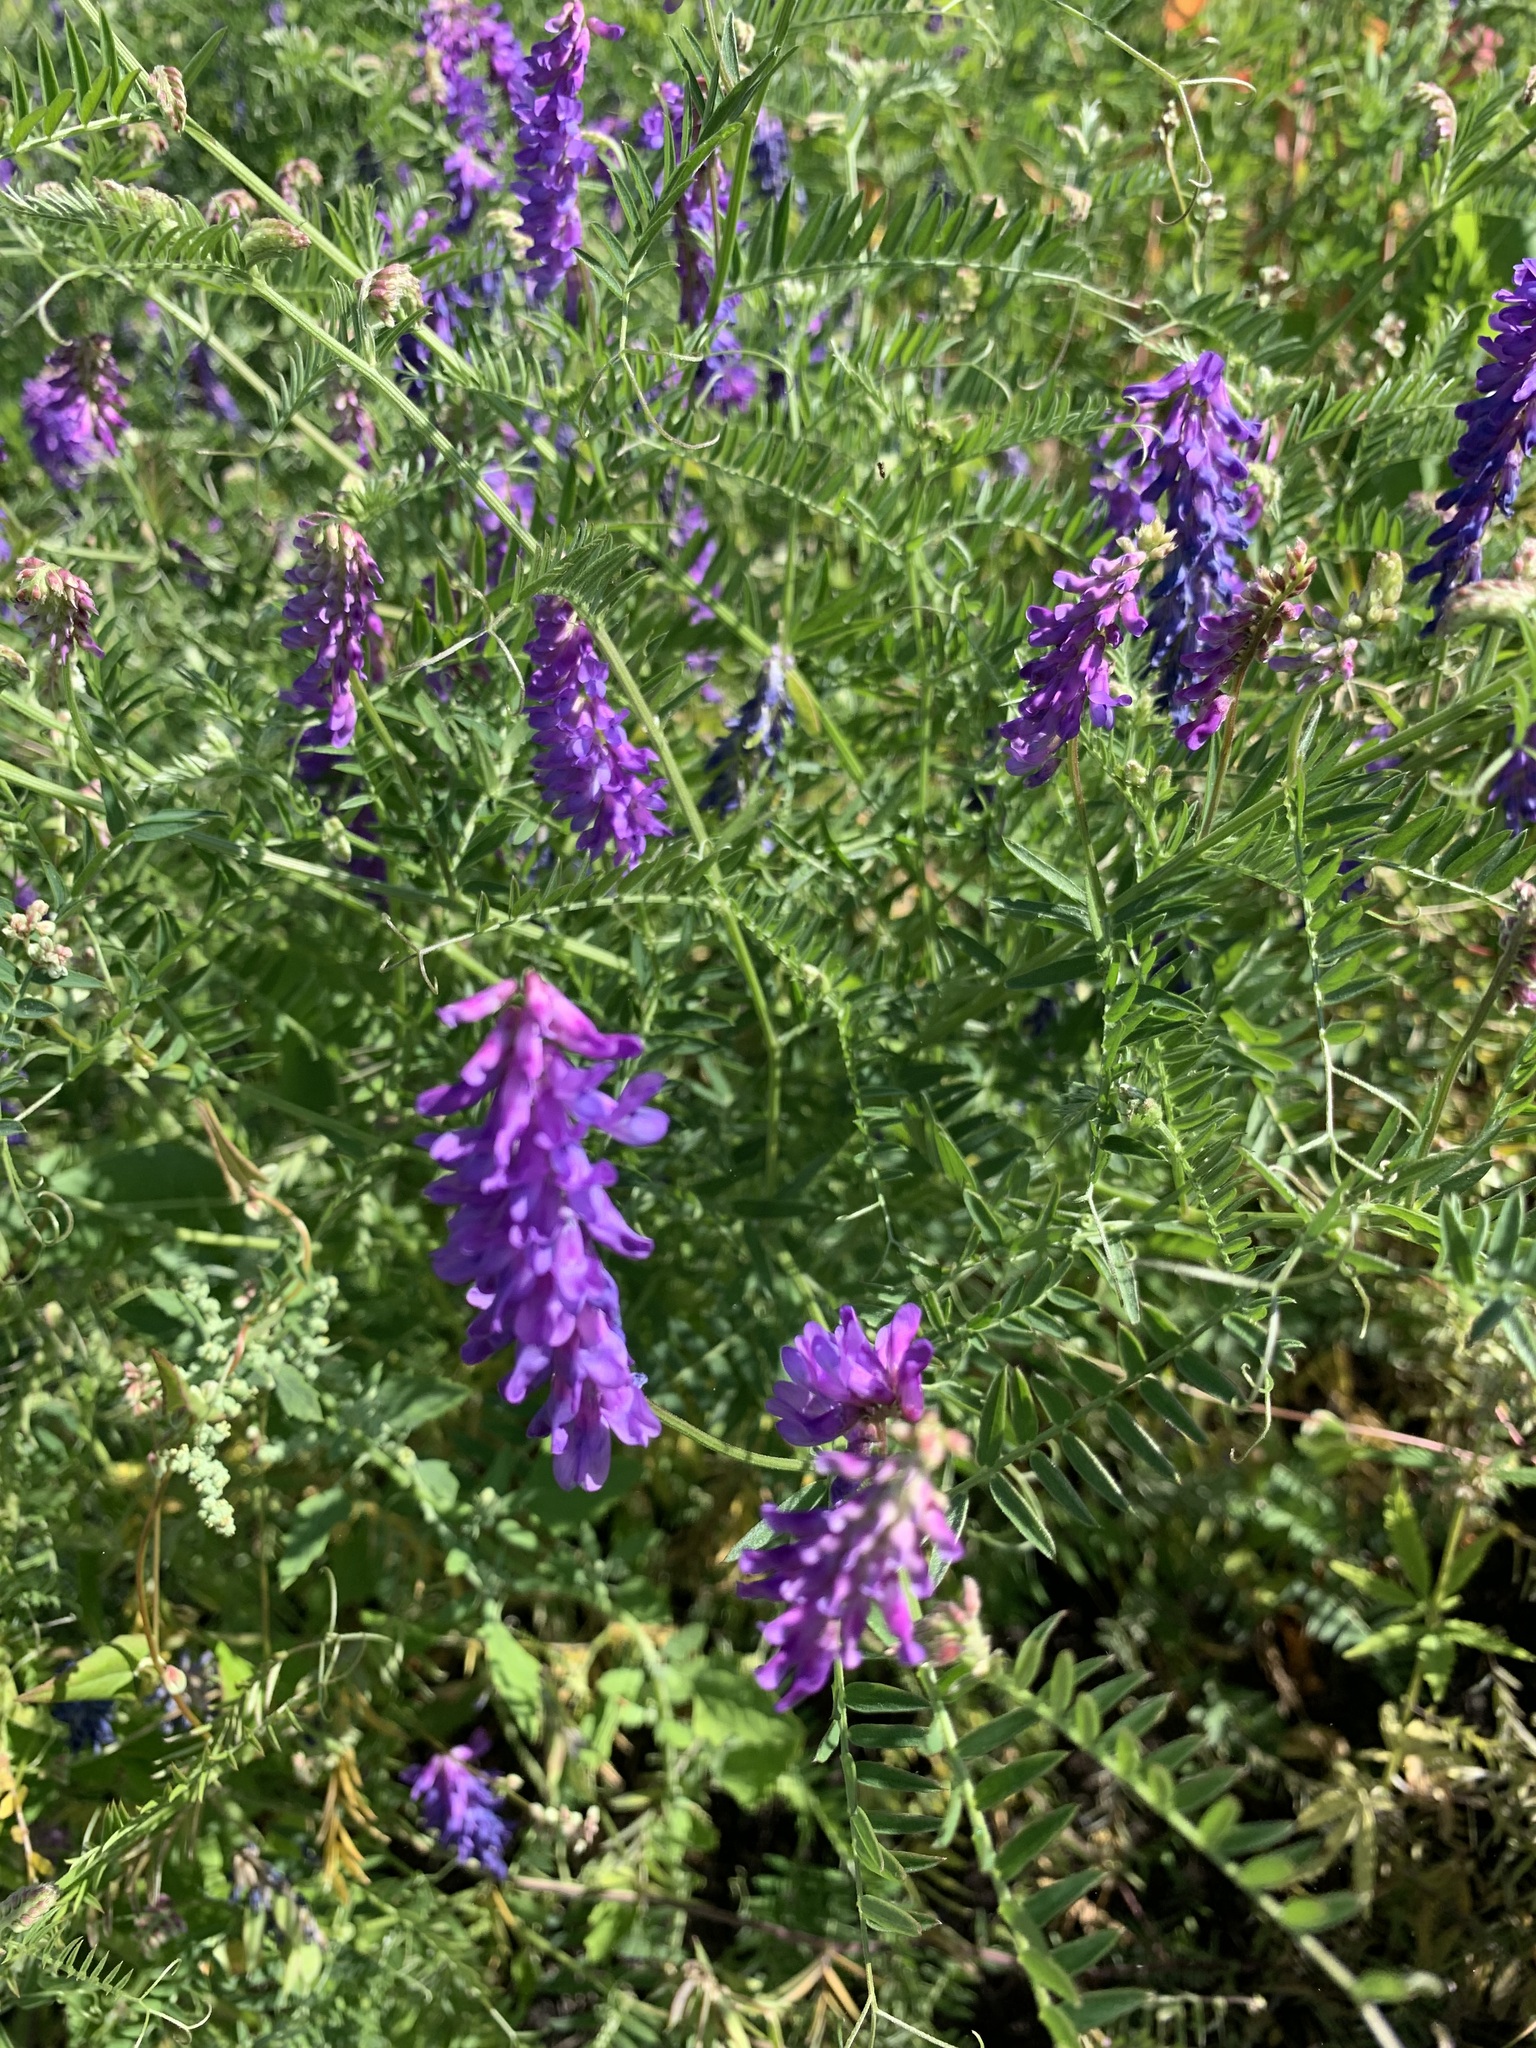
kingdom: Plantae
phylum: Tracheophyta
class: Magnoliopsida
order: Fabales
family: Fabaceae
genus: Vicia
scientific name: Vicia cracca
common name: Bird vetch
